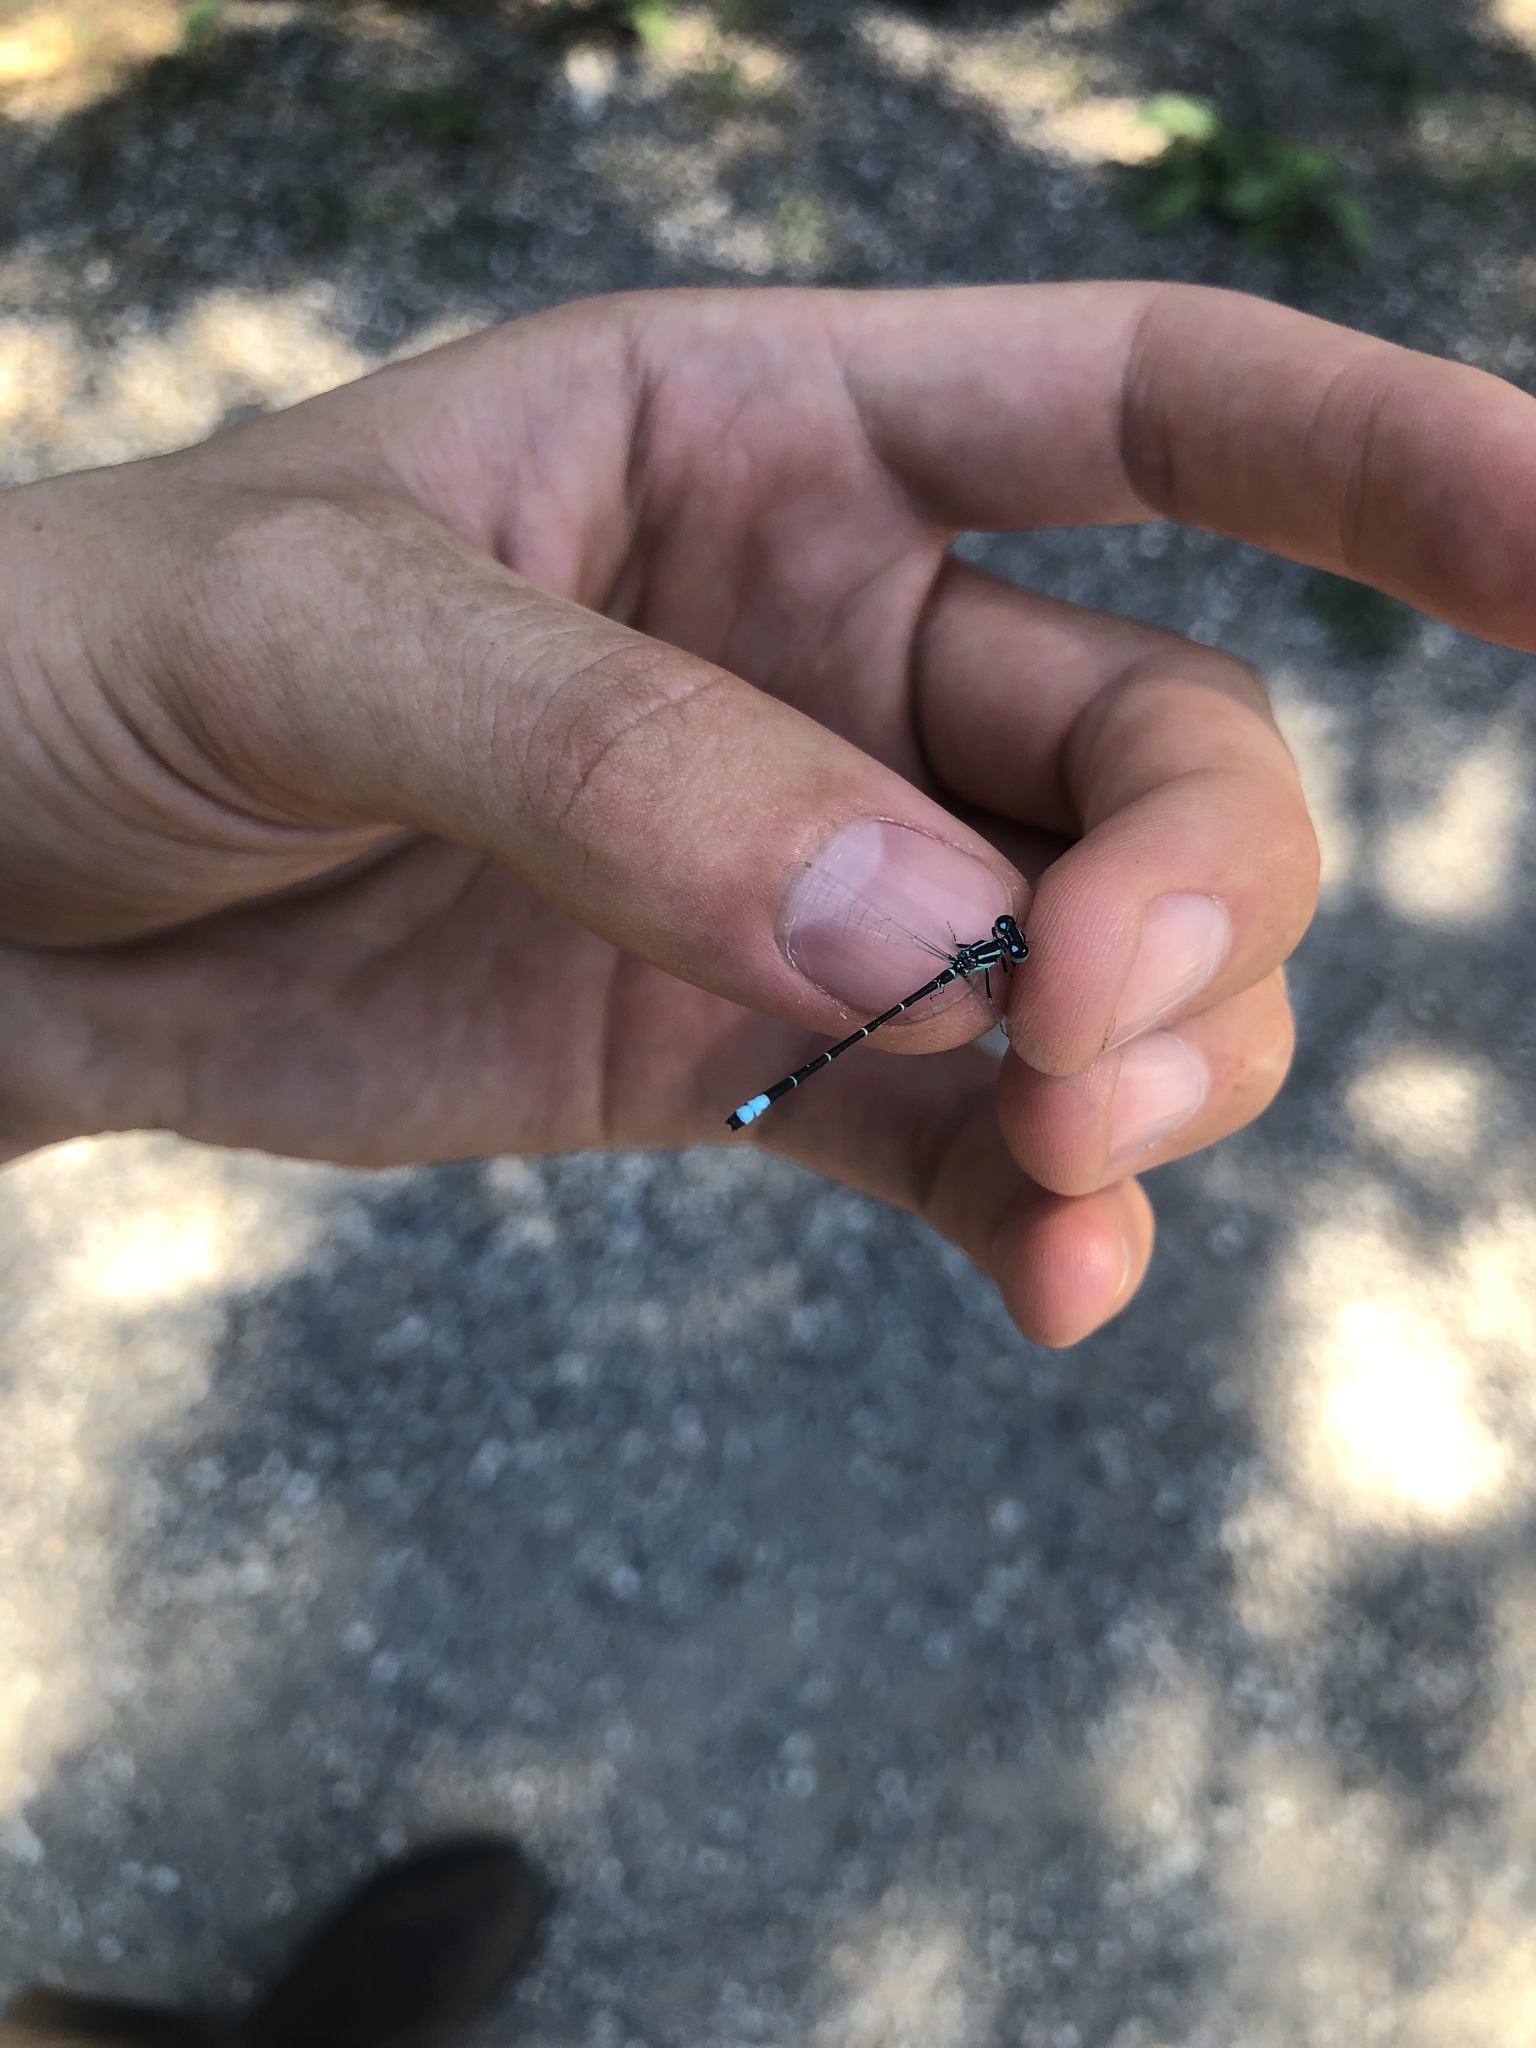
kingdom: Animalia
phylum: Arthropoda
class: Insecta
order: Odonata
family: Coenagrionidae
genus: Ischnura
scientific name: Ischnura perparva
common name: Western forktail
